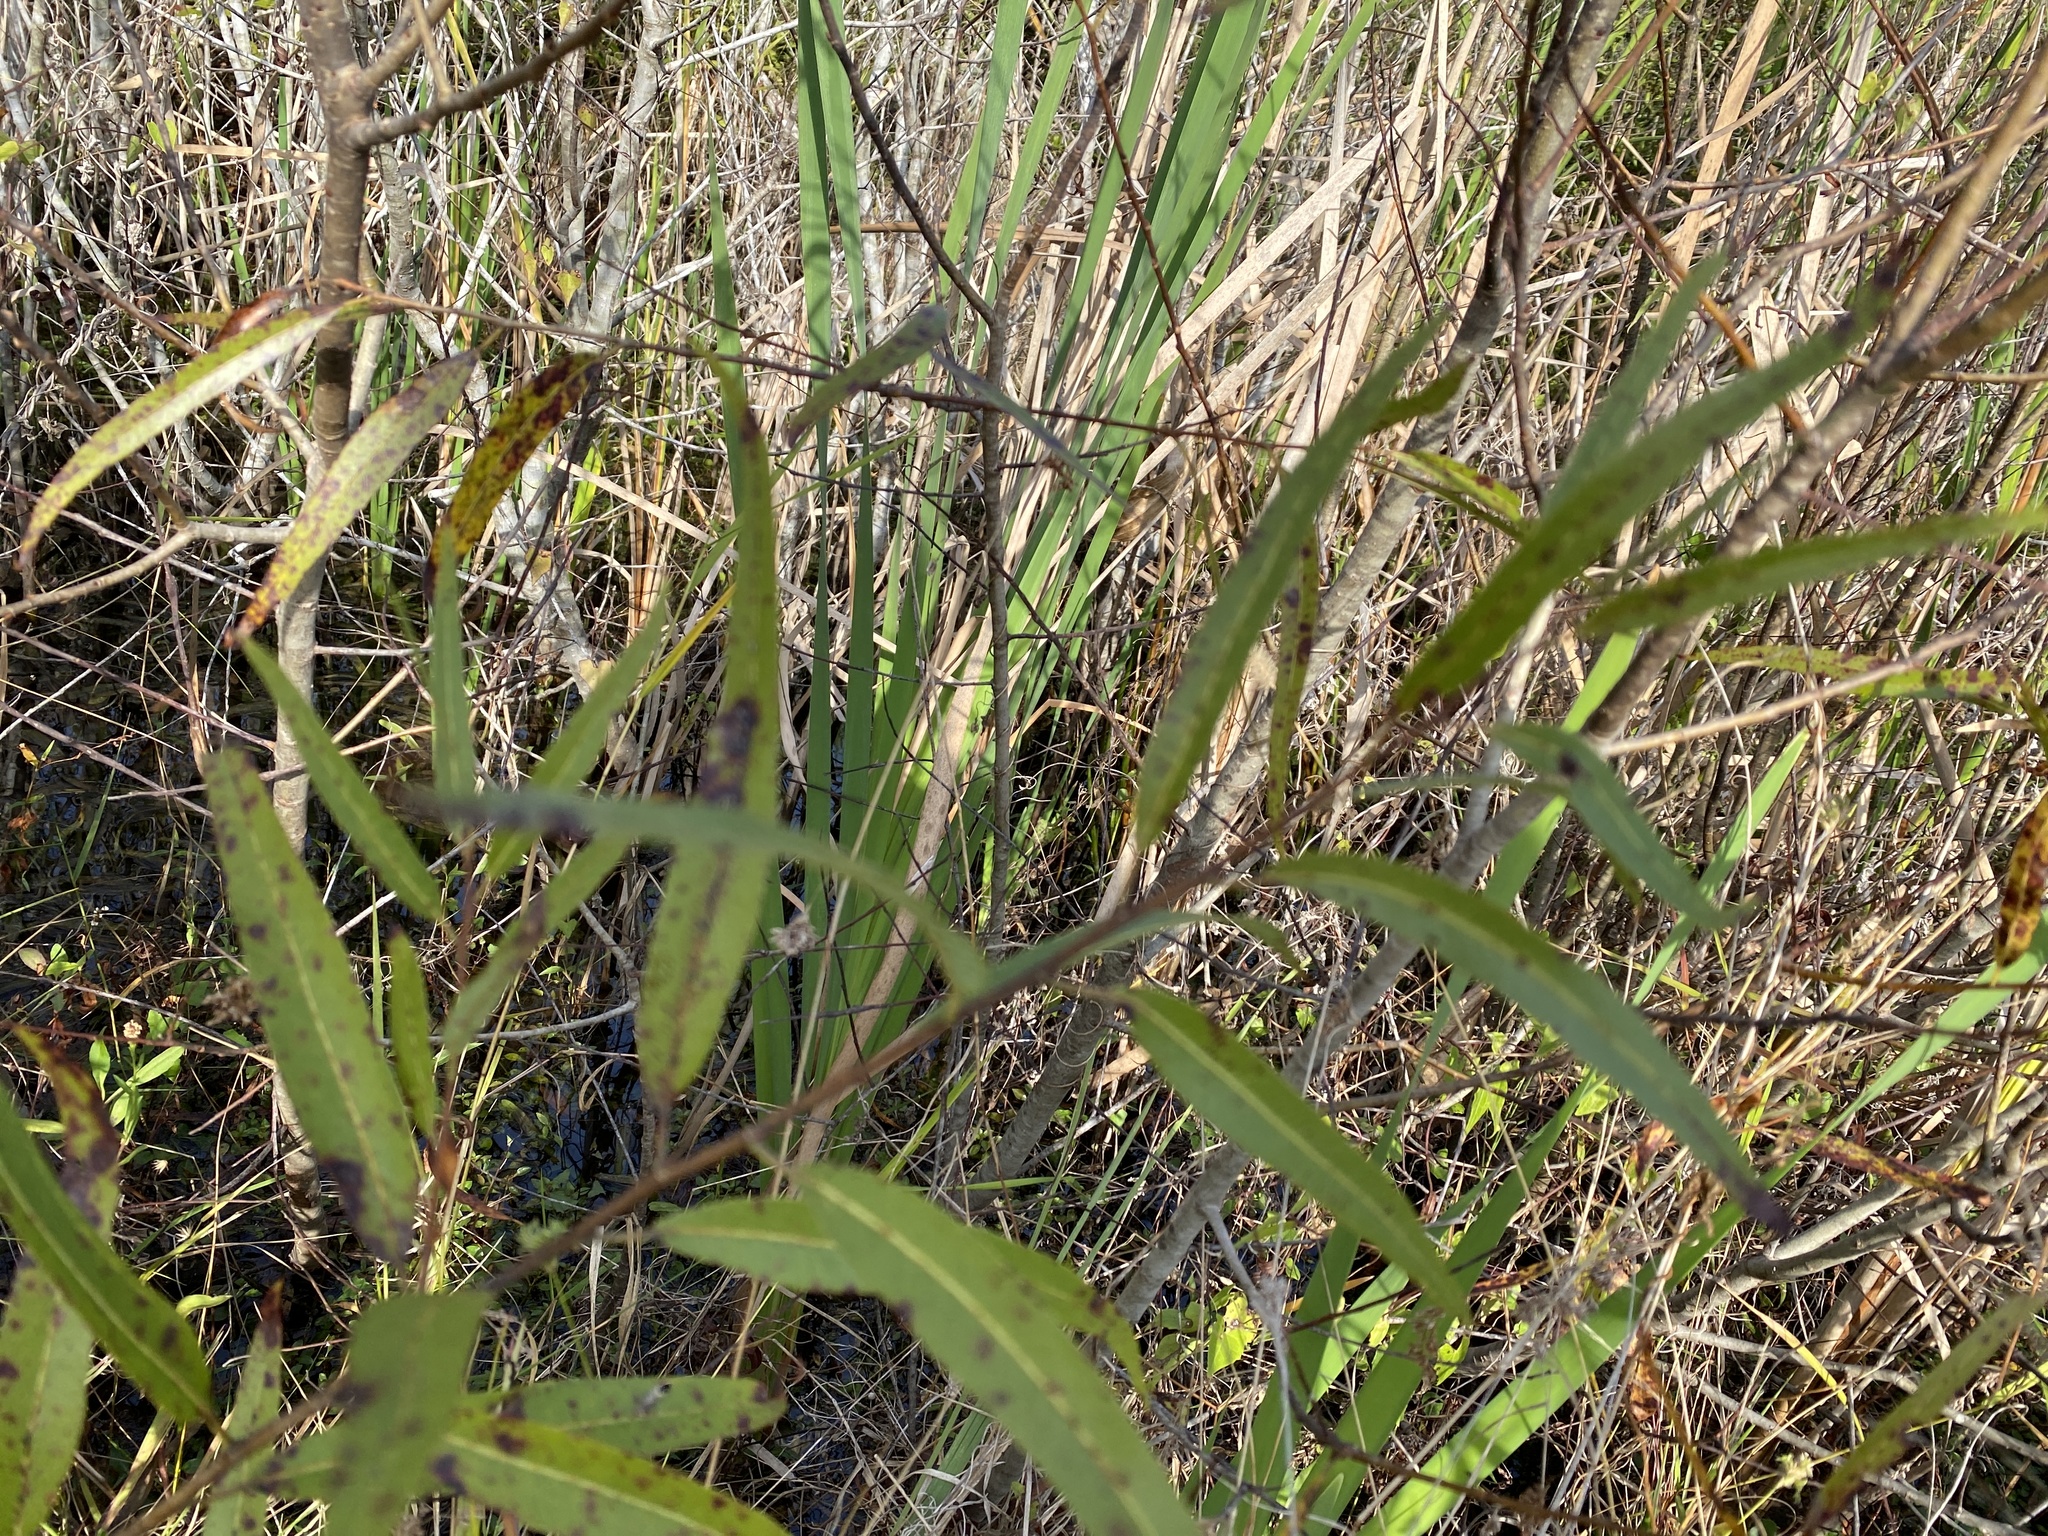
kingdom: Plantae
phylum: Tracheophyta
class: Magnoliopsida
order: Malpighiales
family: Salicaceae
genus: Salix
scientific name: Salix caroliniana
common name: Carolina willow
